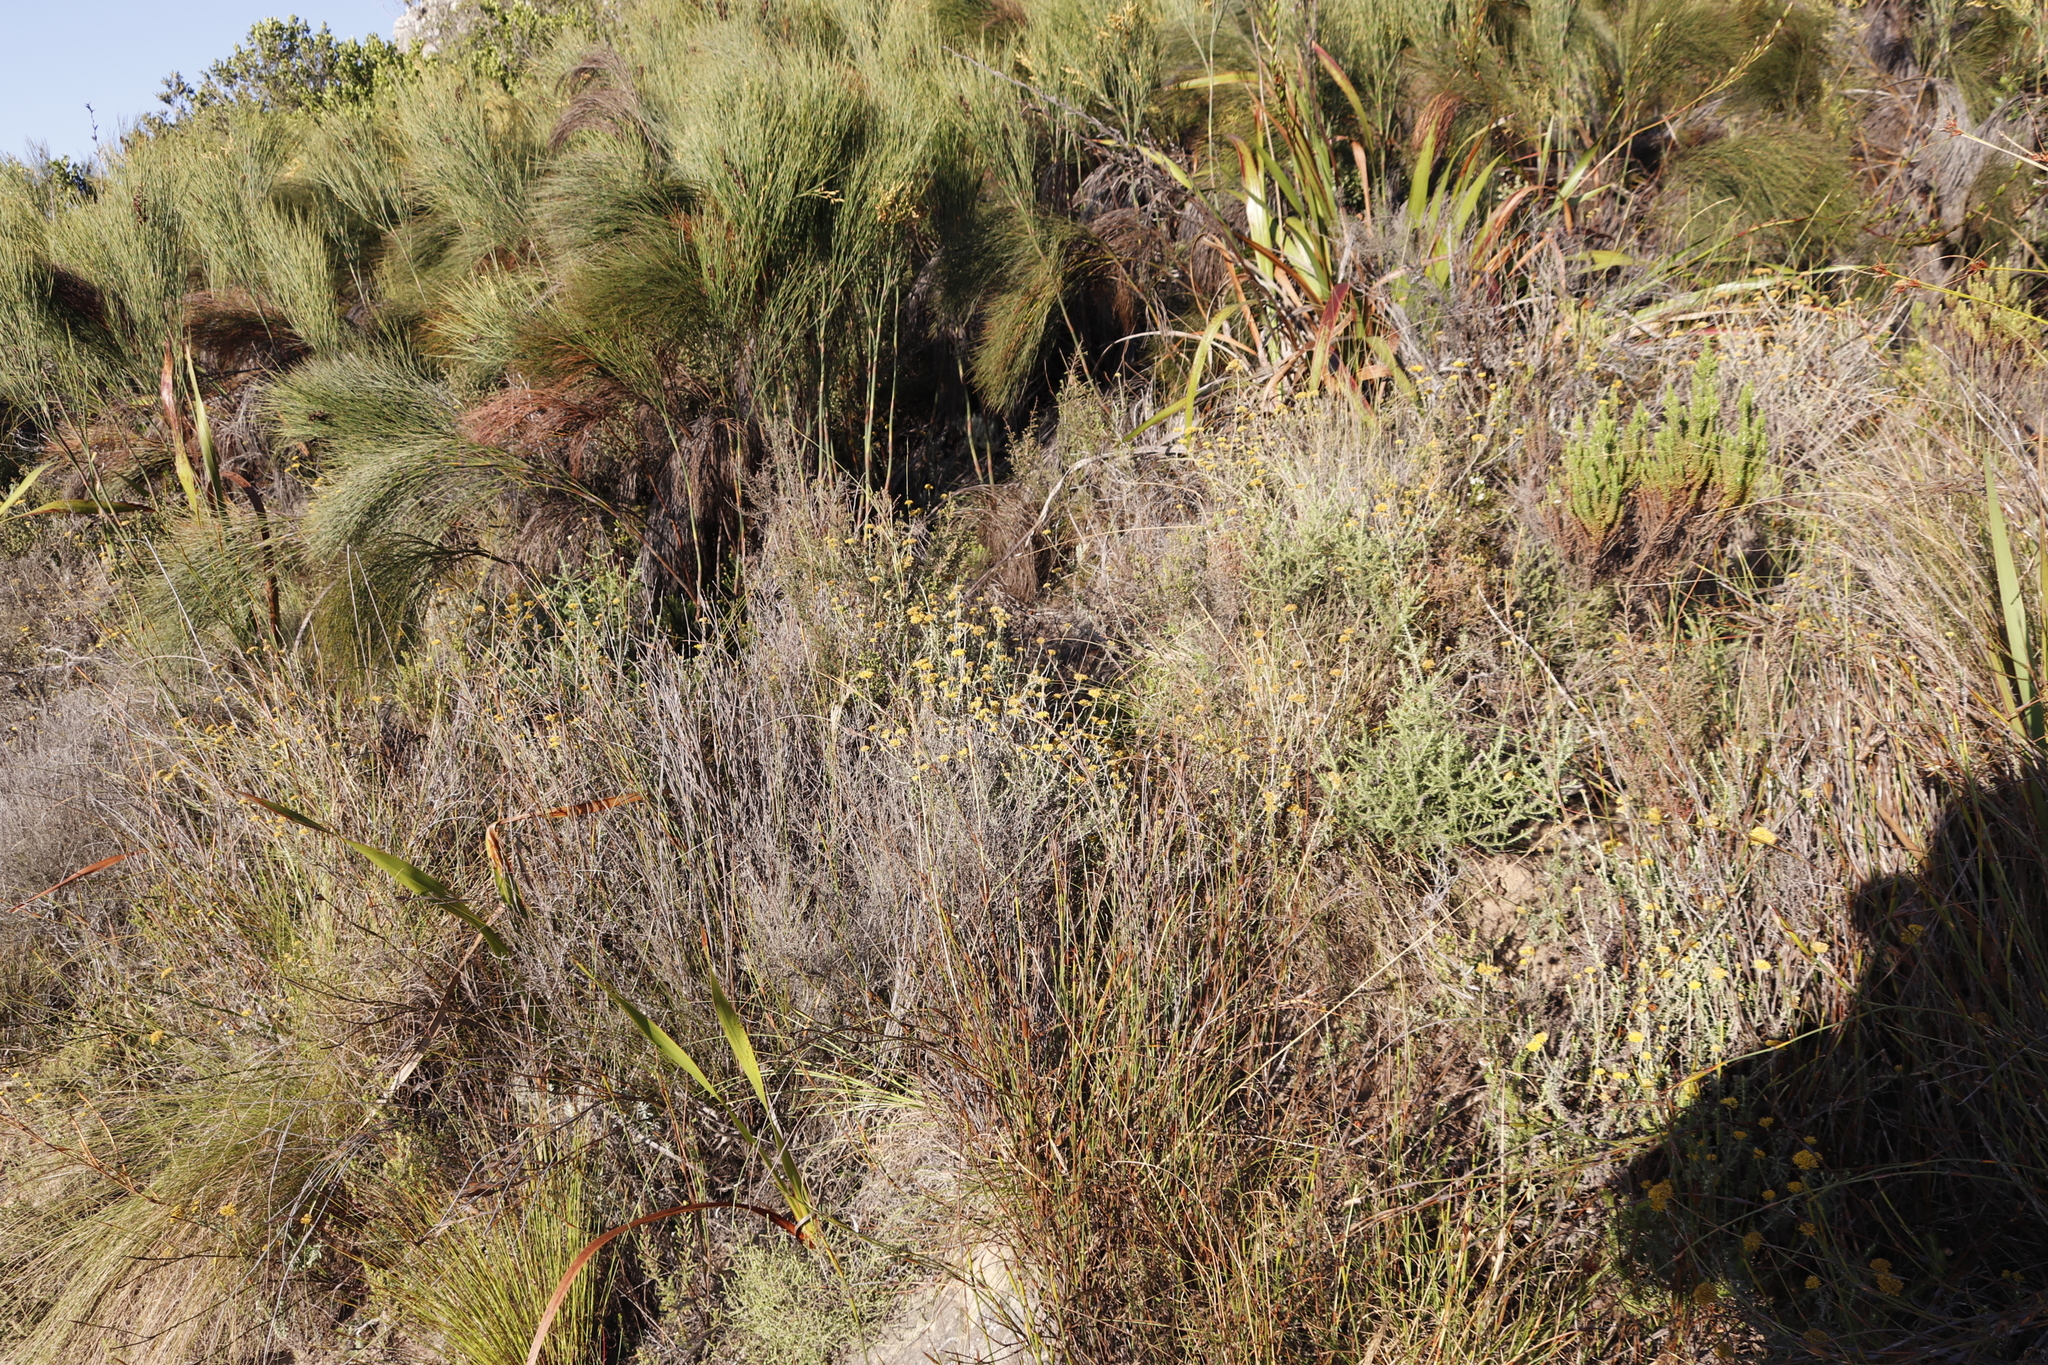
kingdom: Plantae
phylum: Tracheophyta
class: Magnoliopsida
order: Asterales
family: Asteraceae
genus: Helichrysum
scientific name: Helichrysum cymosum
